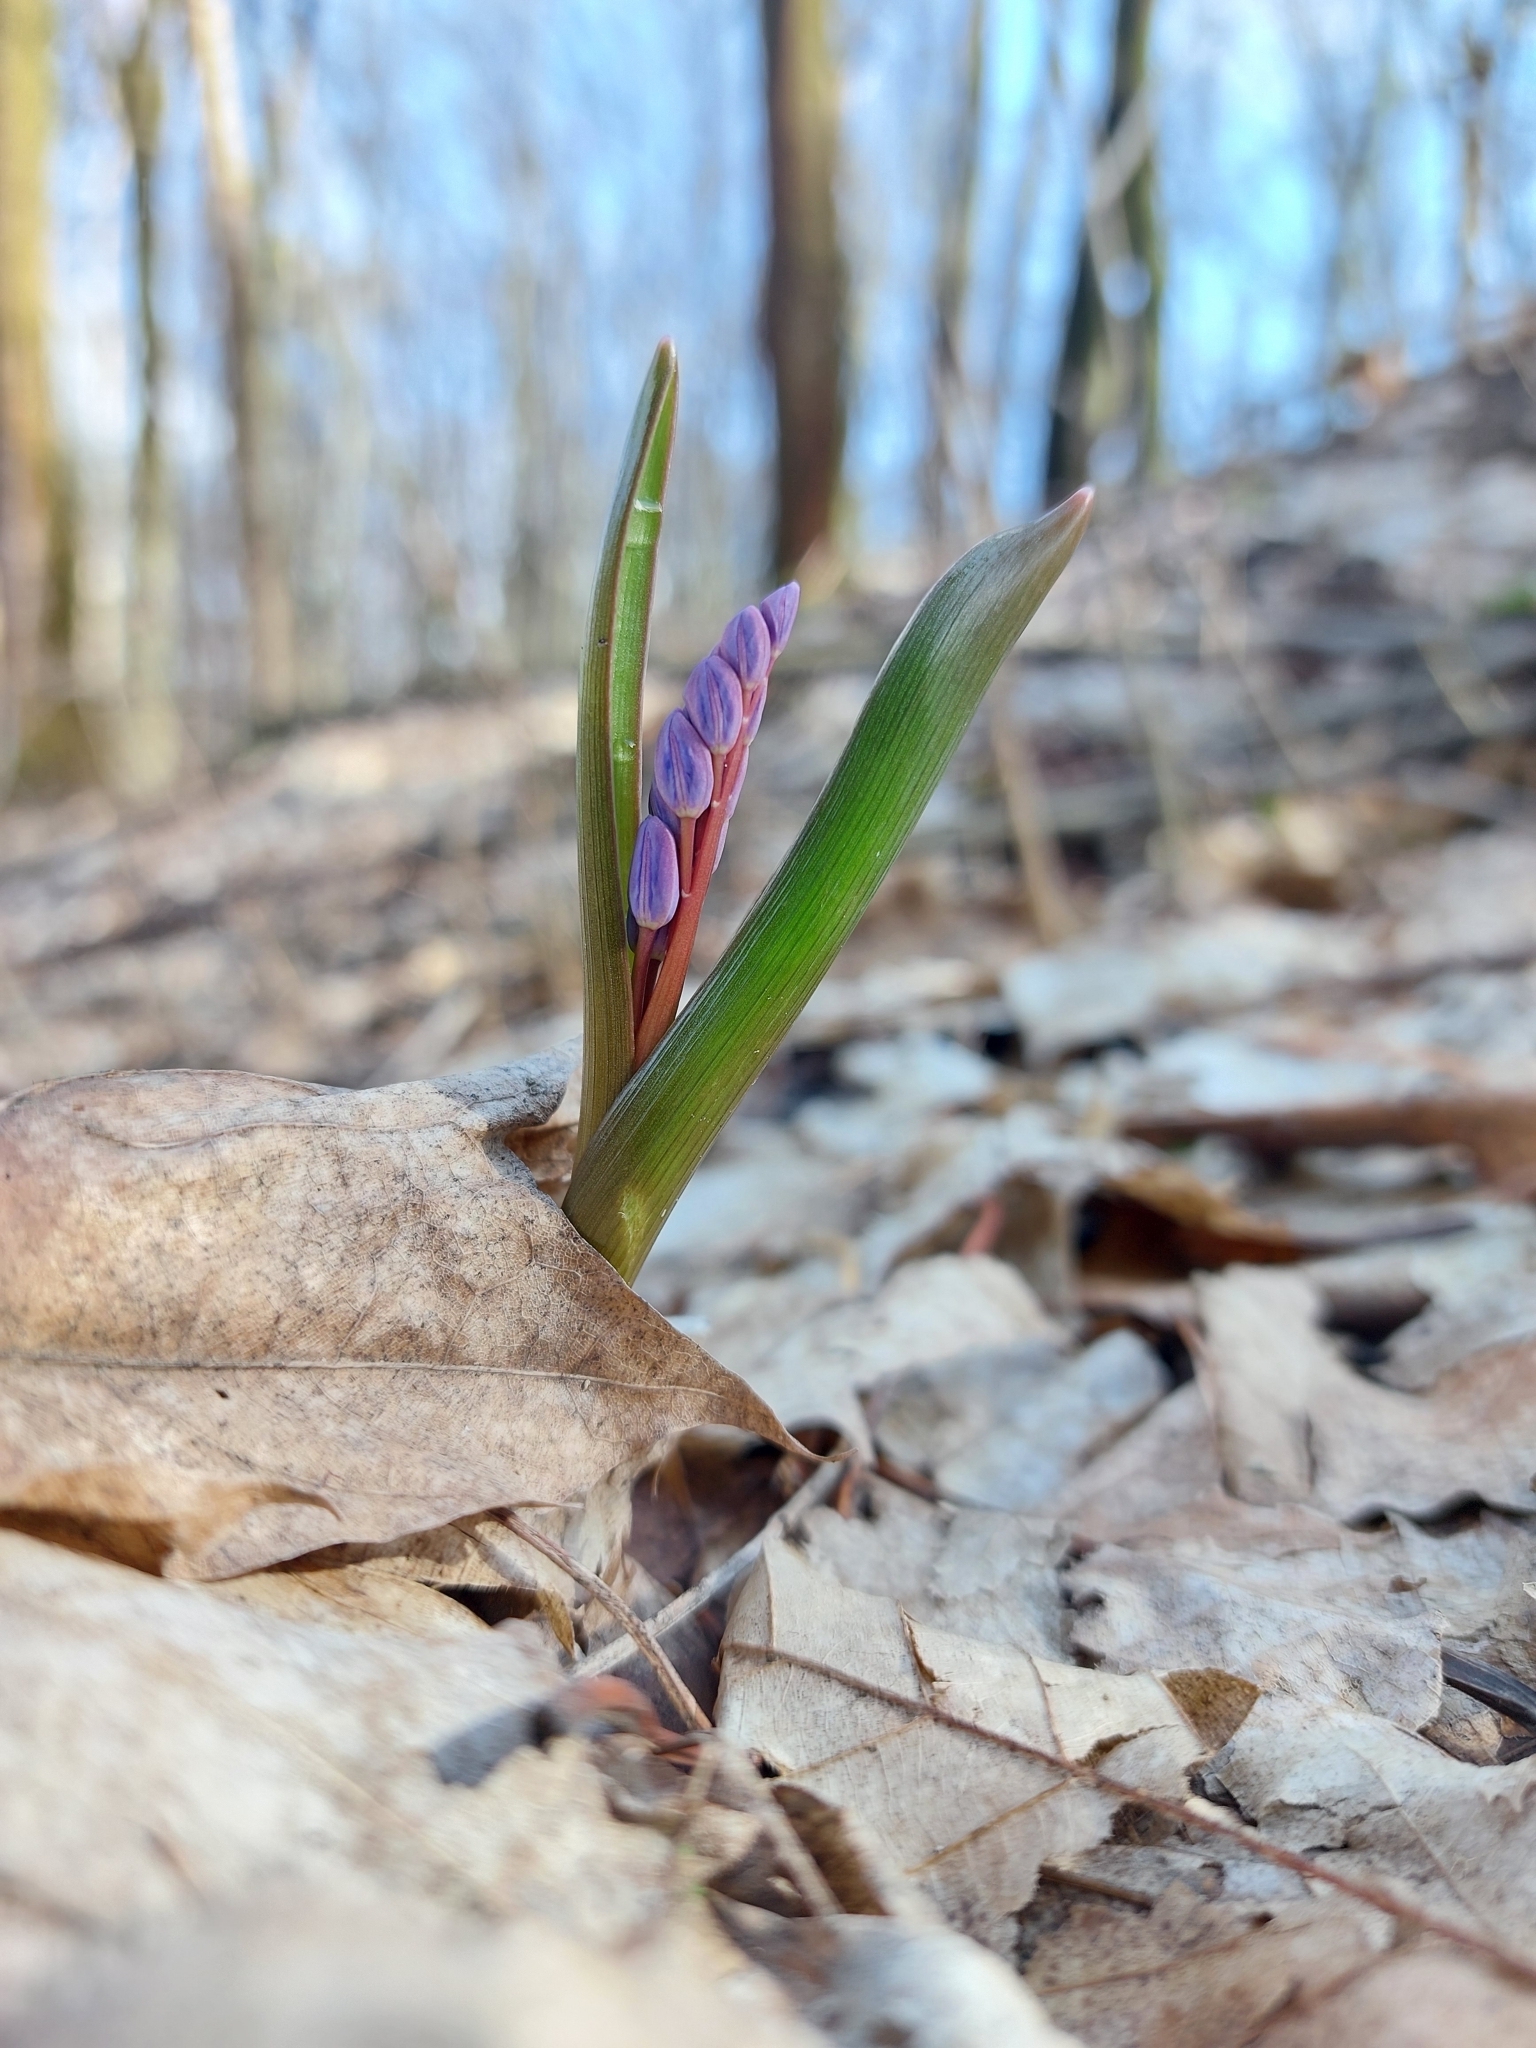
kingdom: Plantae
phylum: Tracheophyta
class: Liliopsida
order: Asparagales
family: Asparagaceae
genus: Scilla
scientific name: Scilla bifolia
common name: Alpine squill
